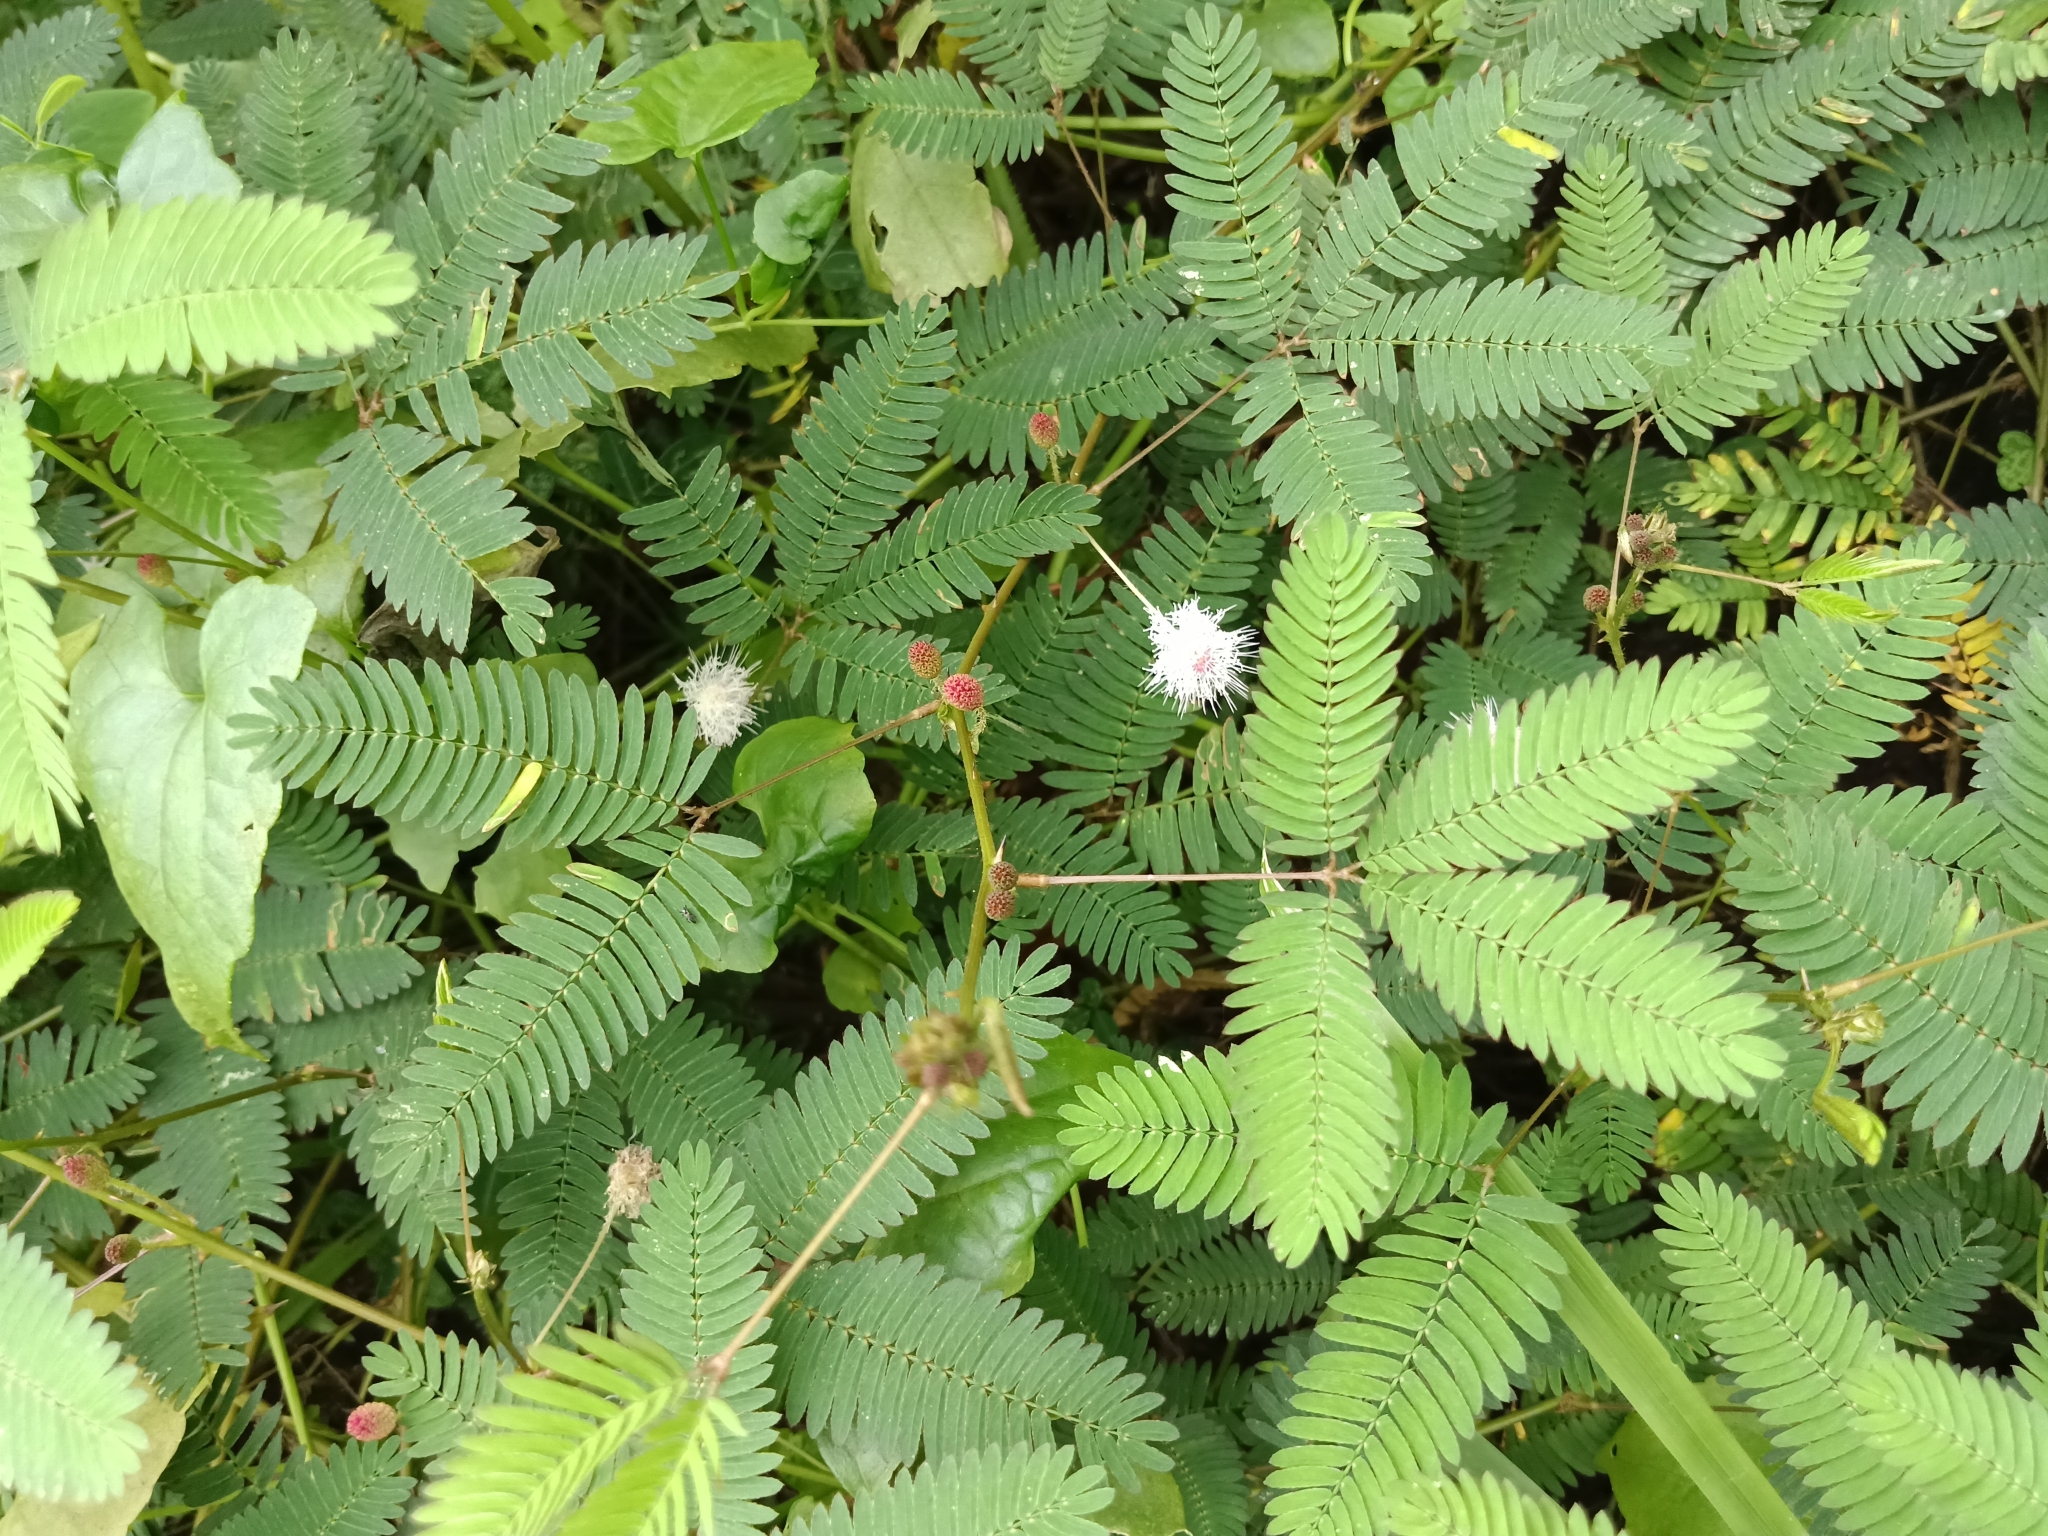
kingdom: Plantae
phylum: Tracheophyta
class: Magnoliopsida
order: Fabales
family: Fabaceae
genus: Mimosa
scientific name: Mimosa pudica
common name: Sensitive plant
